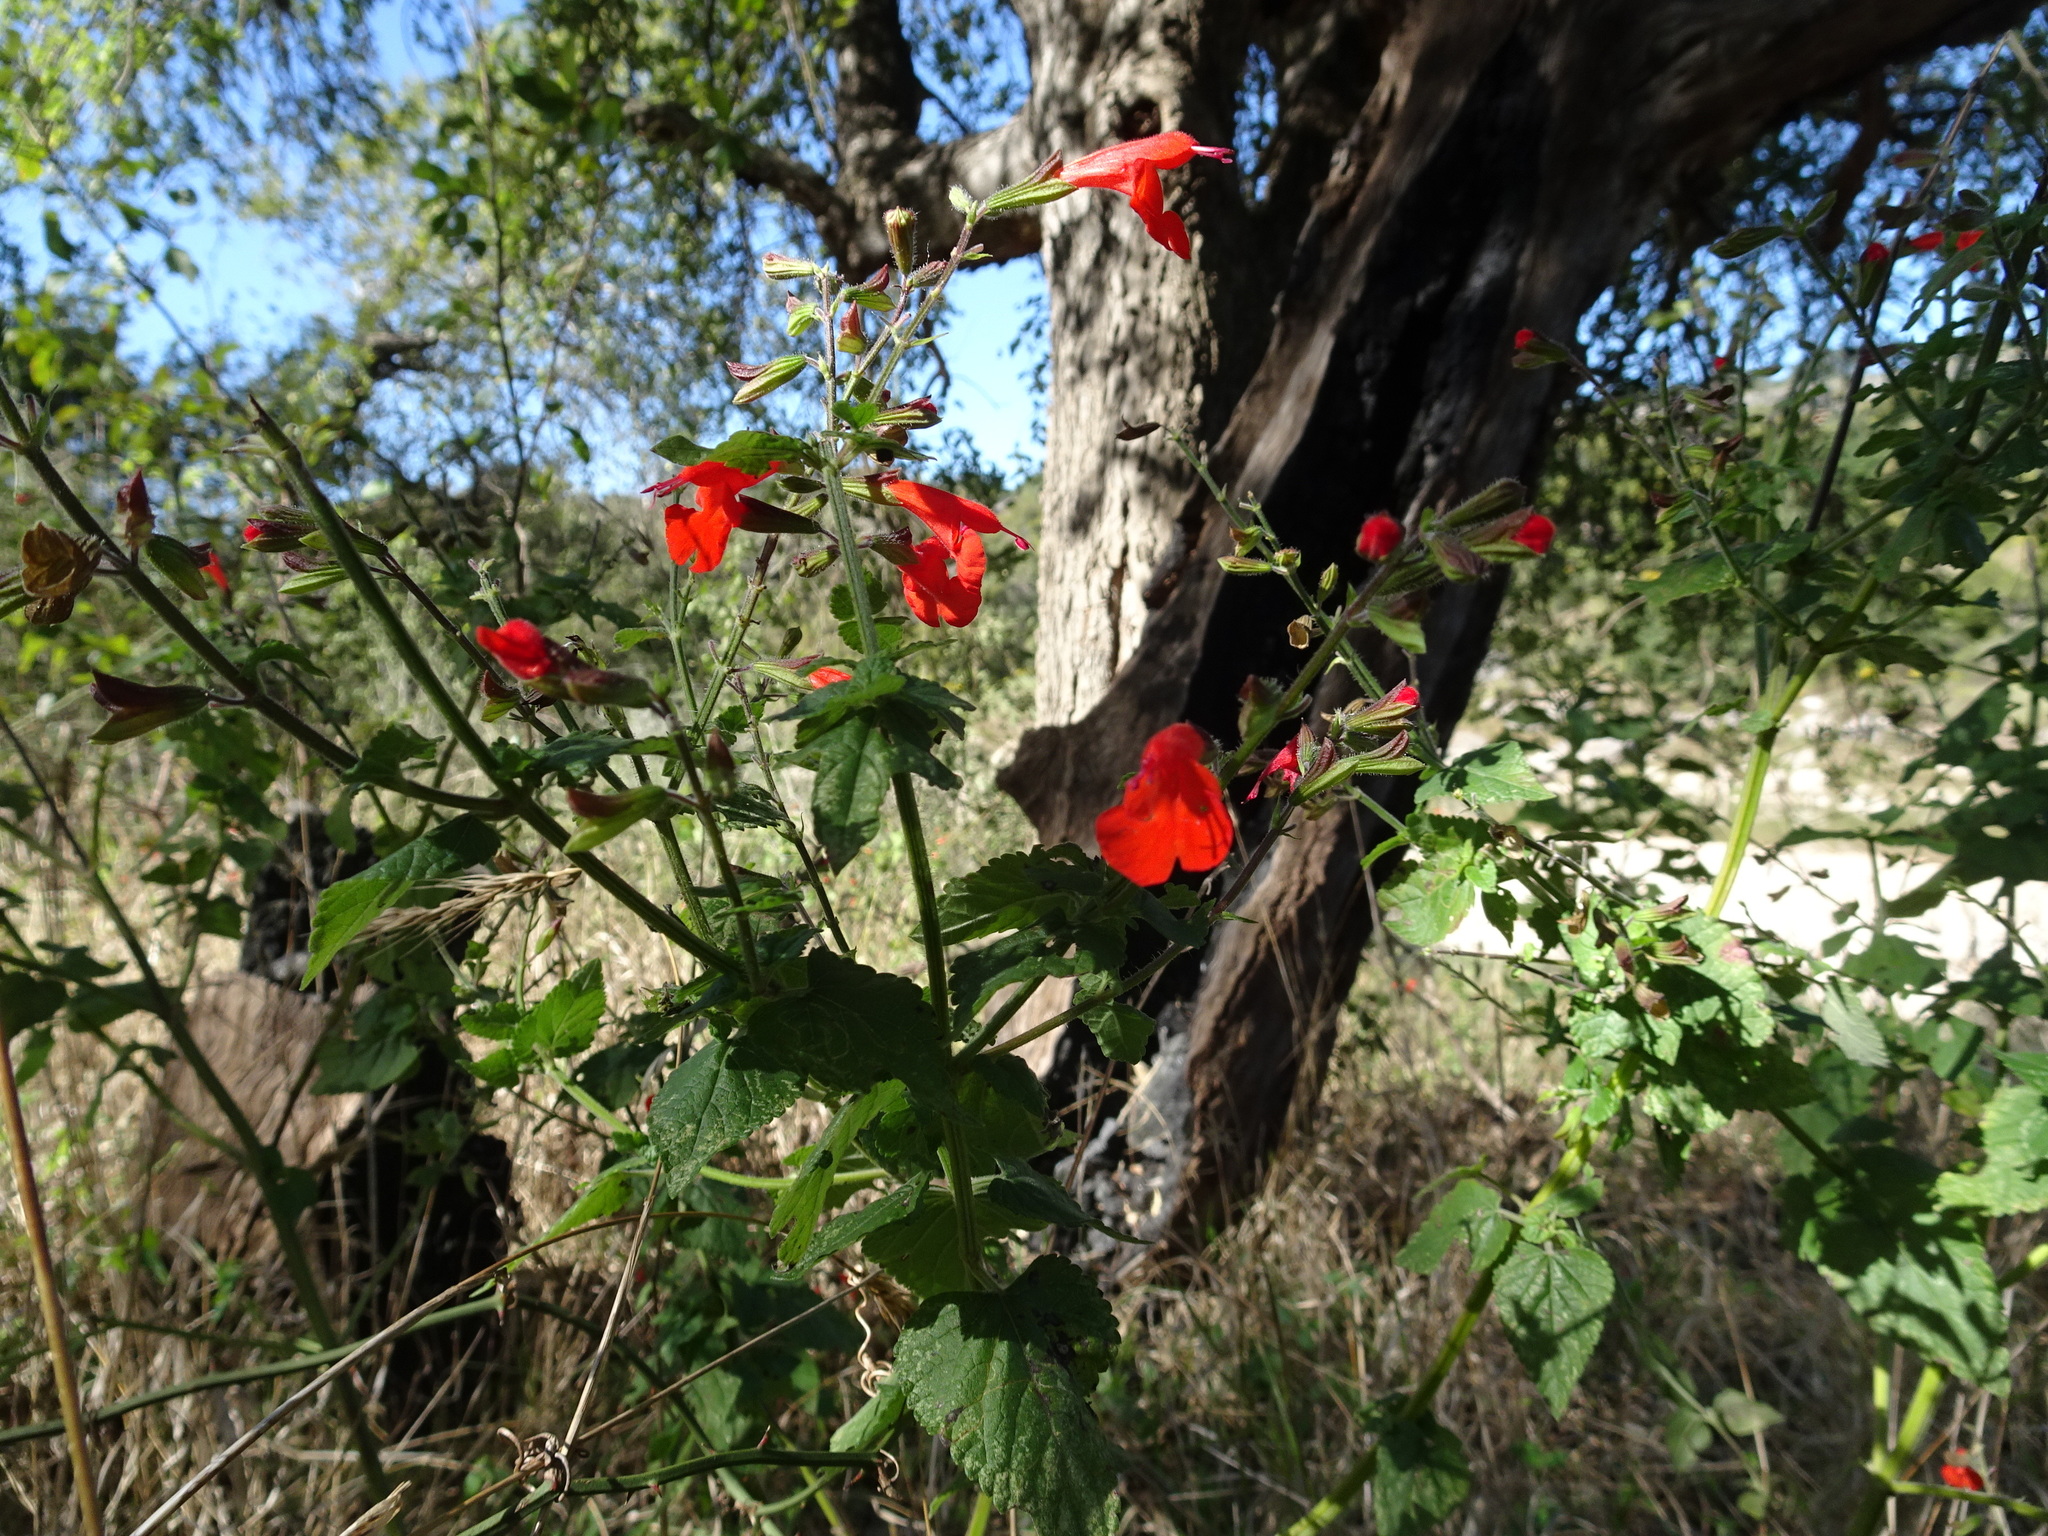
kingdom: Plantae
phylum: Tracheophyta
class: Magnoliopsida
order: Lamiales
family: Lamiaceae
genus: Salvia
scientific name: Salvia coccinea
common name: Blood sage
